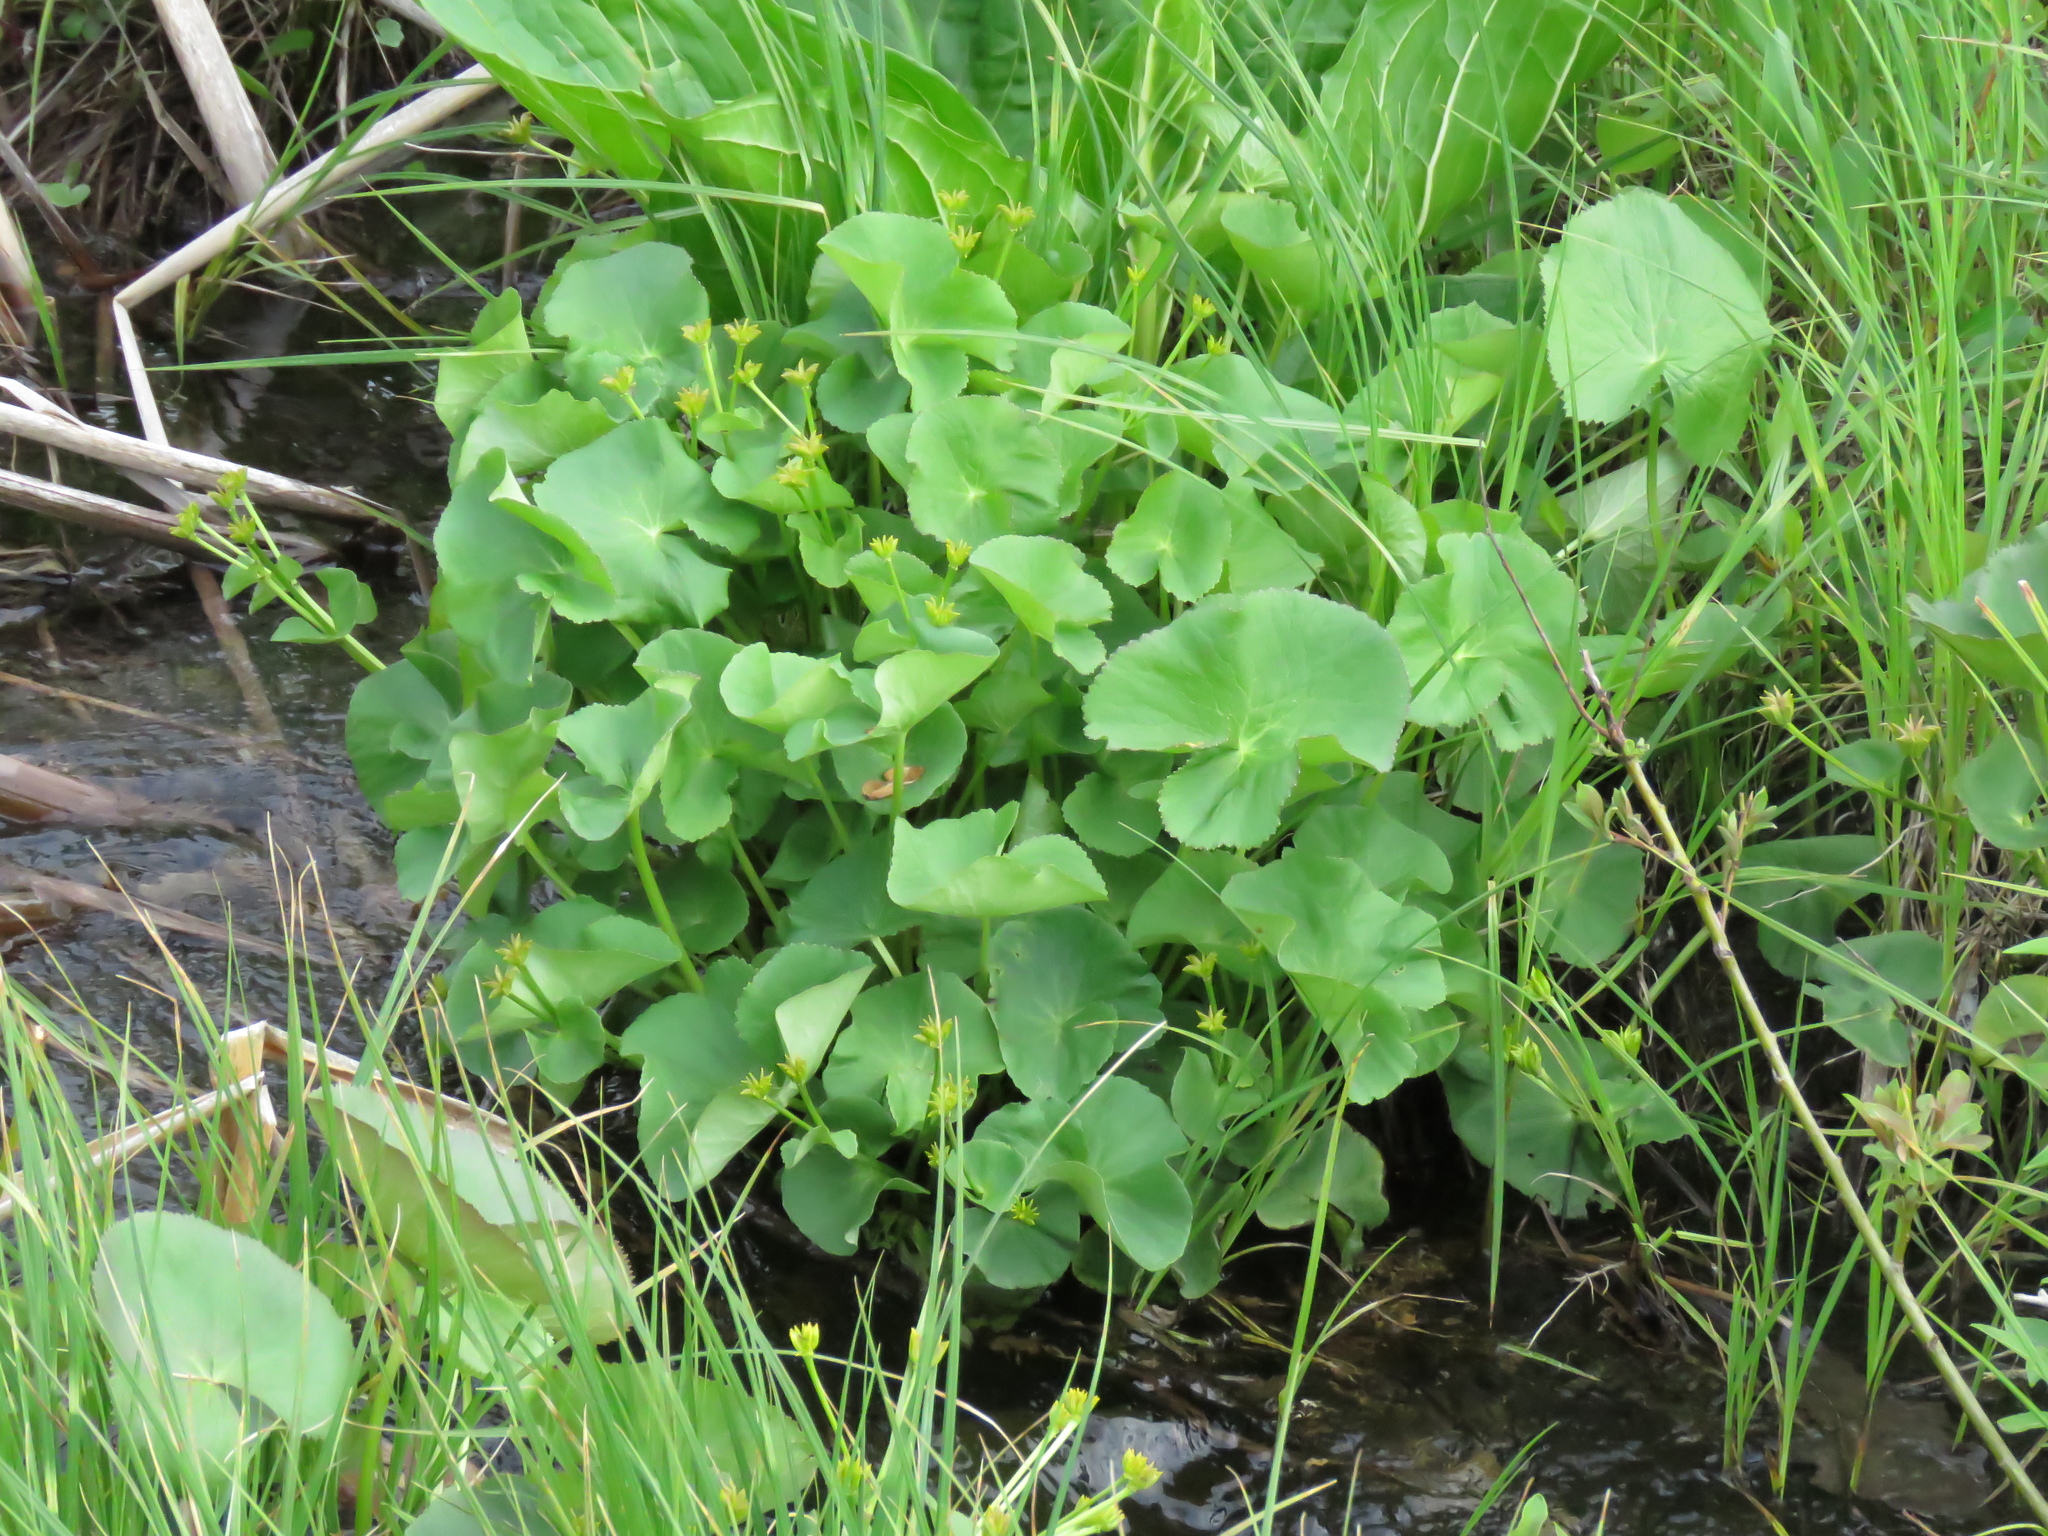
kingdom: Plantae
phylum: Tracheophyta
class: Magnoliopsida
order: Ranunculales
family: Ranunculaceae
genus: Caltha
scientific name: Caltha palustris
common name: Marsh marigold
